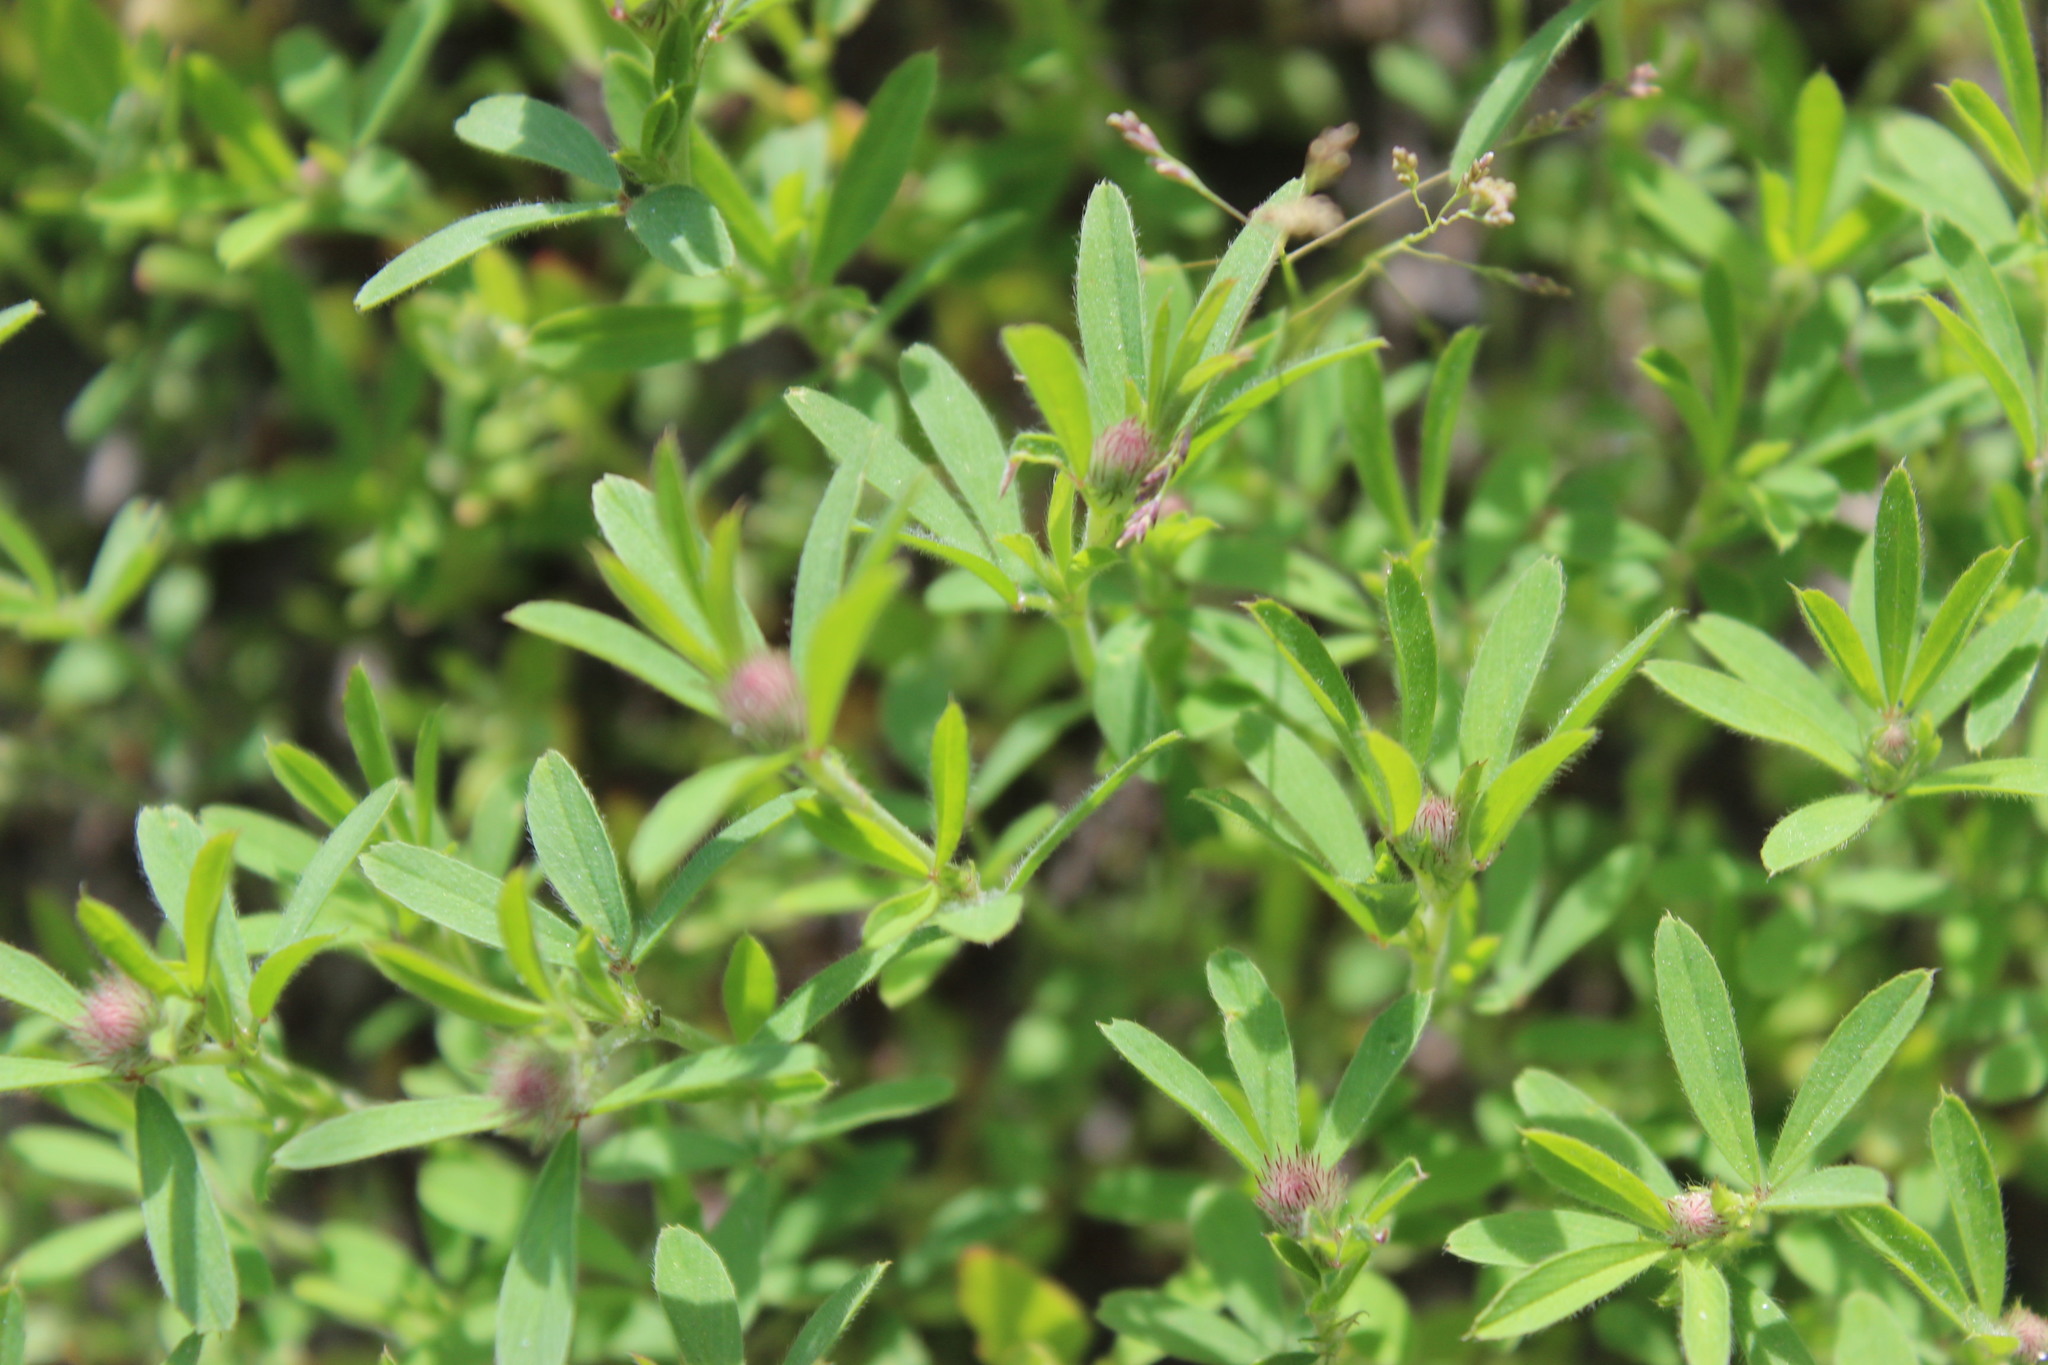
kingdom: Plantae
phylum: Tracheophyta
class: Magnoliopsida
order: Fabales
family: Fabaceae
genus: Trifolium
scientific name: Trifolium arvense
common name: Hare's-foot clover
